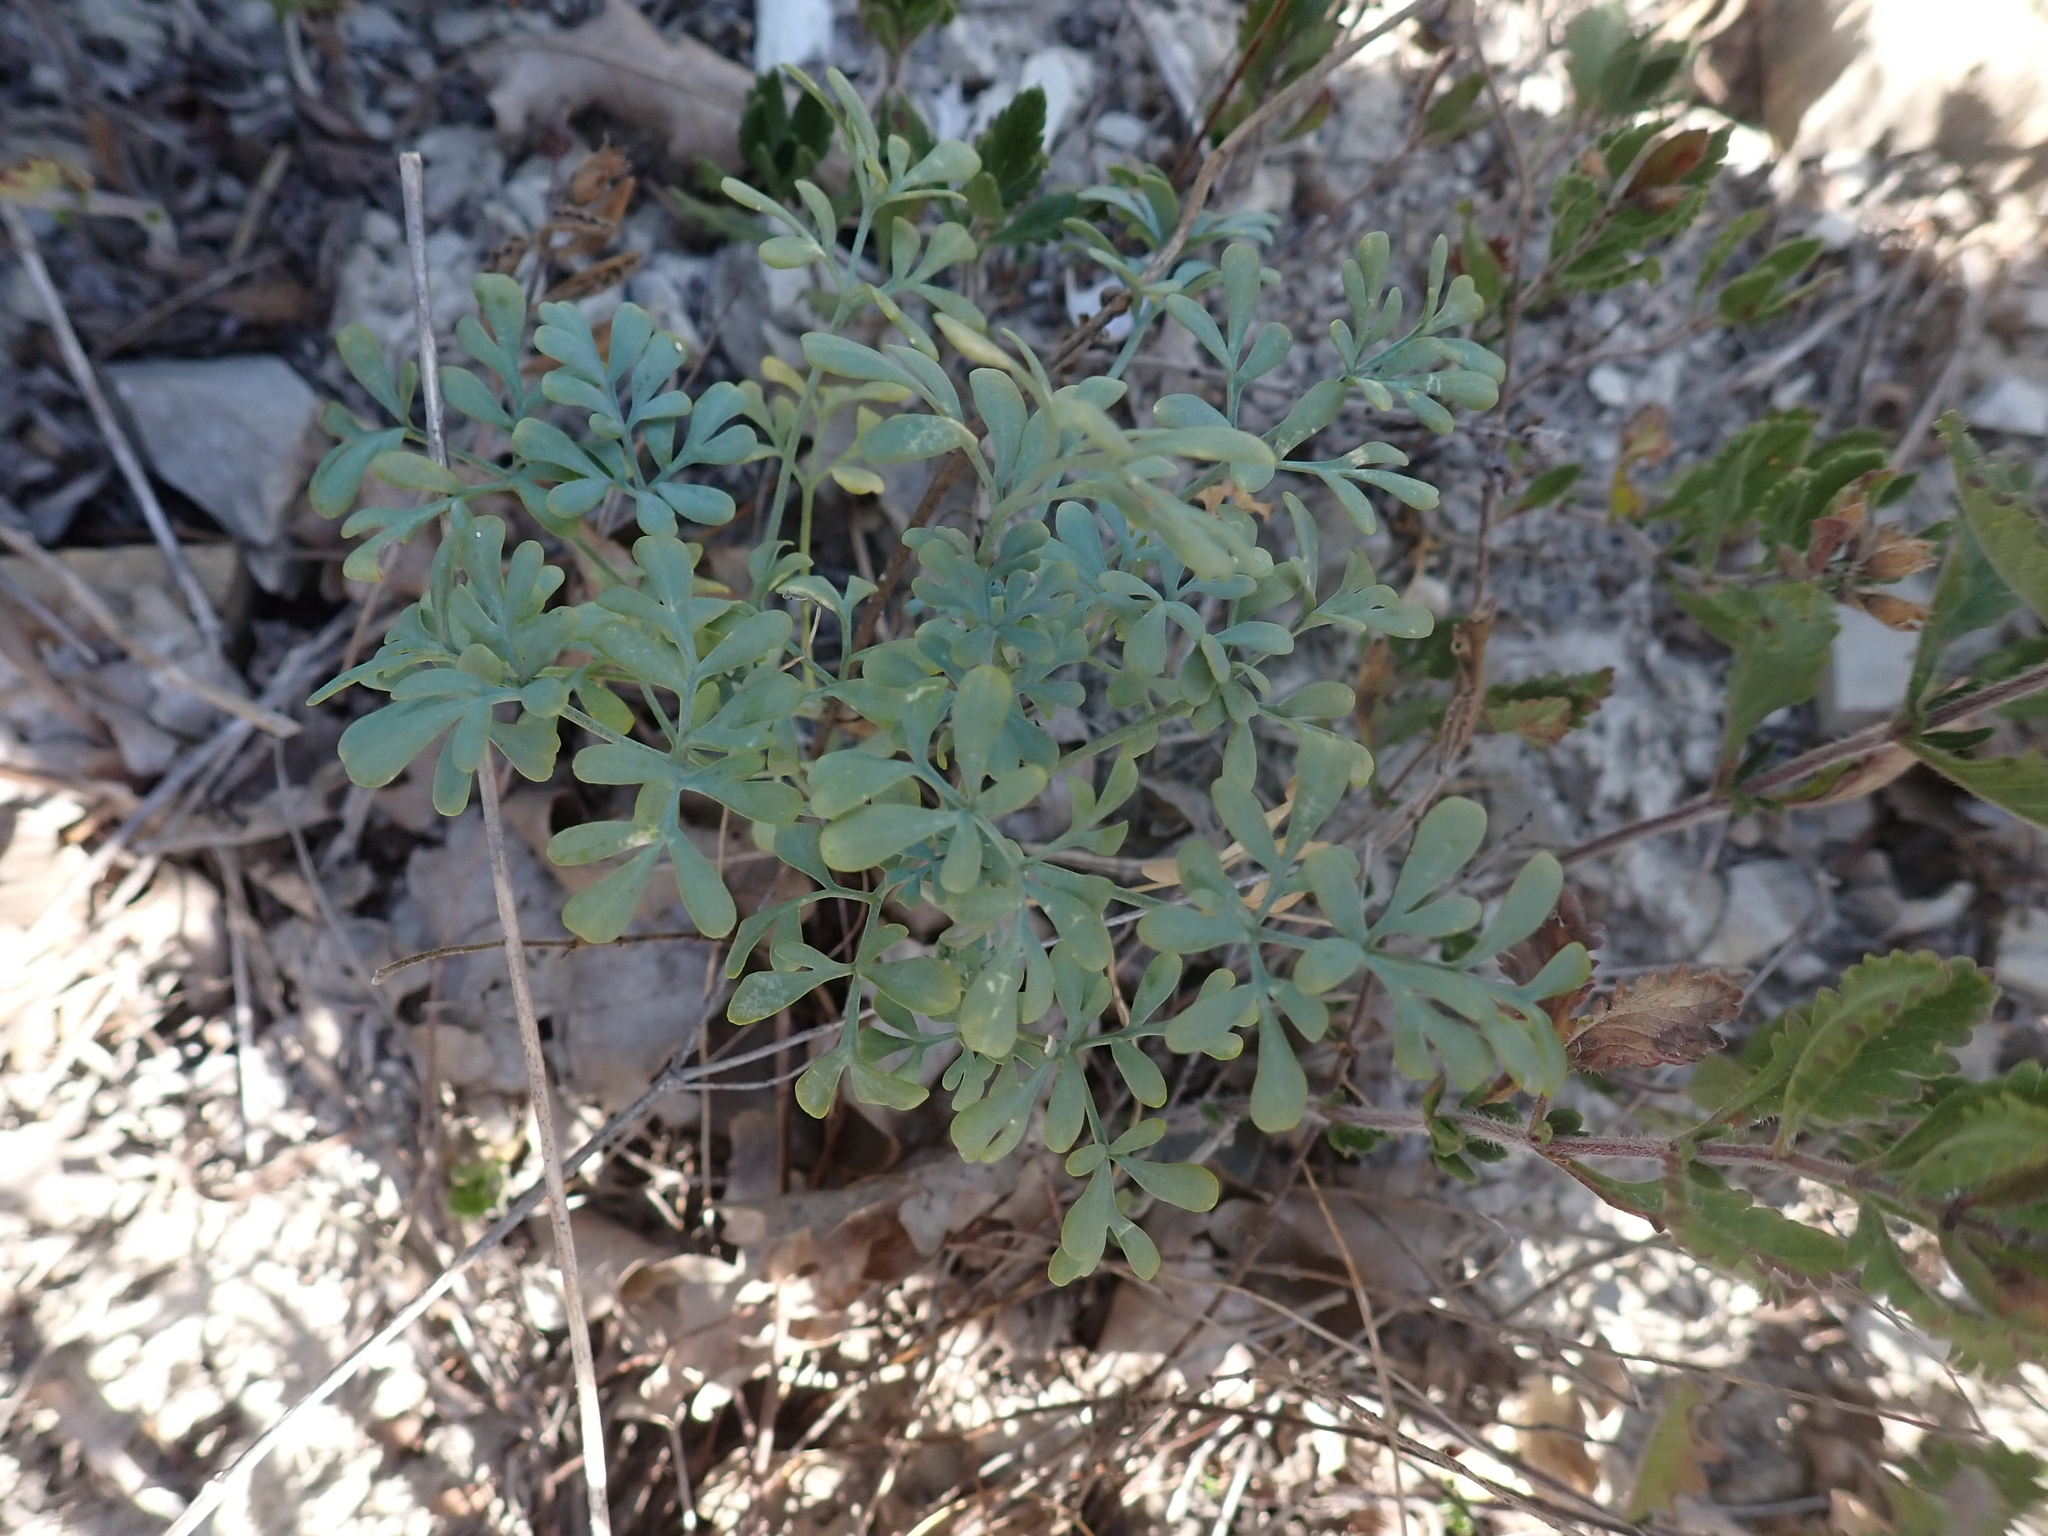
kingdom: Plantae
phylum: Tracheophyta
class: Magnoliopsida
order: Sapindales
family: Rutaceae
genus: Ruta
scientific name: Ruta graveolens
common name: Common rue
